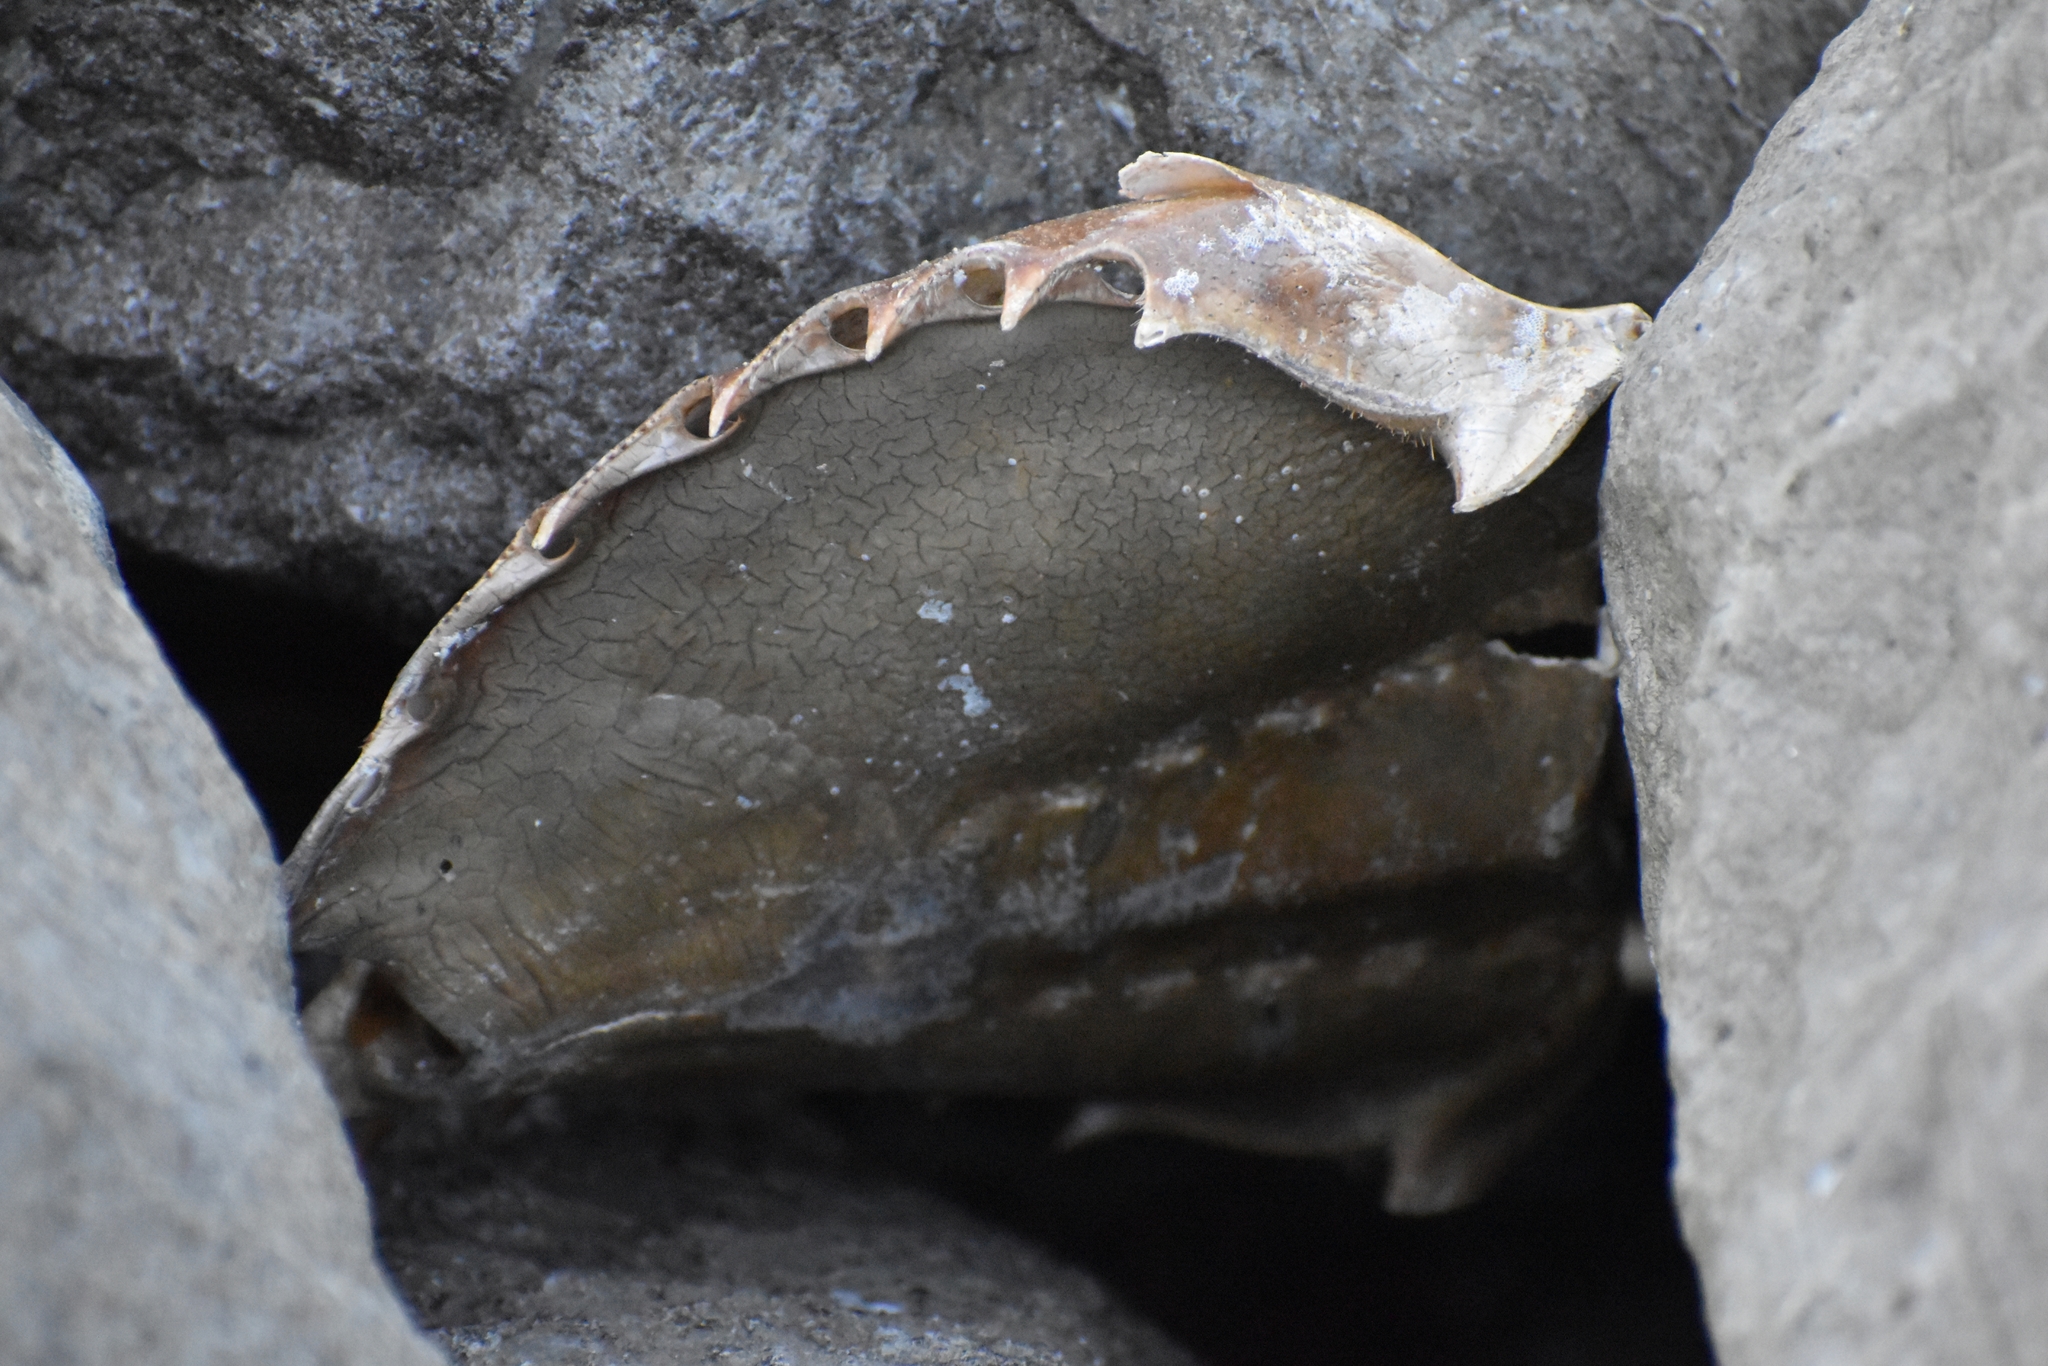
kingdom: Animalia
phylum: Arthropoda
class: Merostomata
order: Xiphosurida
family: Limulidae
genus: Limulus
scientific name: Limulus polyphemus
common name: Horseshoe crab
